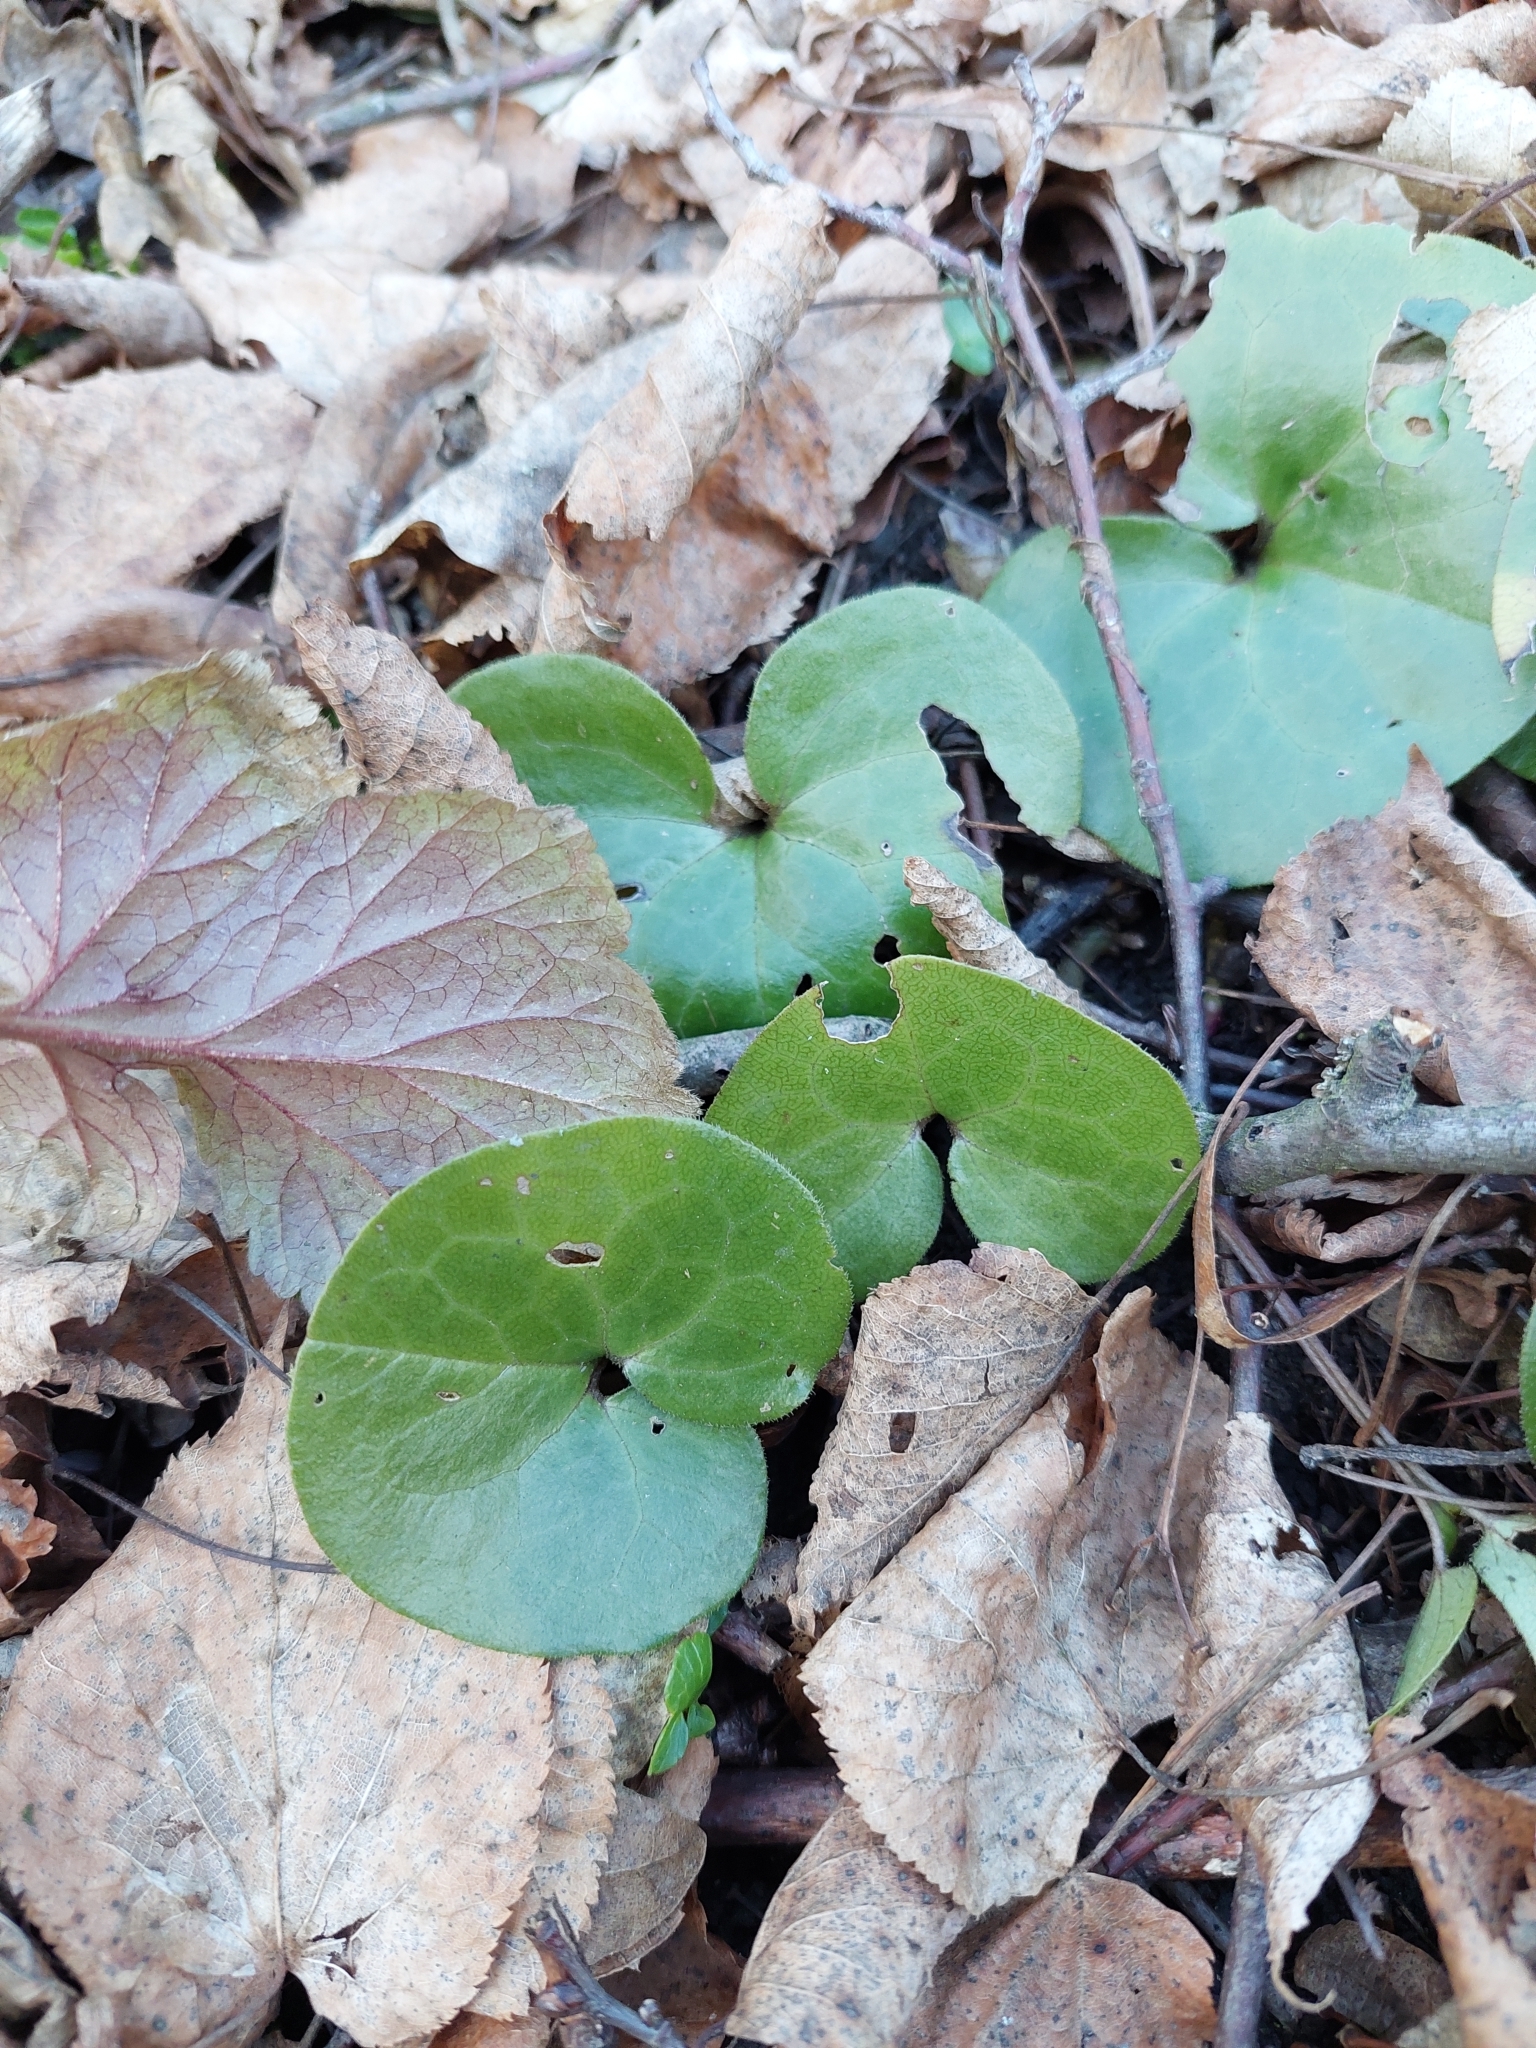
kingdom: Plantae
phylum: Tracheophyta
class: Magnoliopsida
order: Piperales
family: Aristolochiaceae
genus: Asarum
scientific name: Asarum europaeum
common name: Asarabacca
